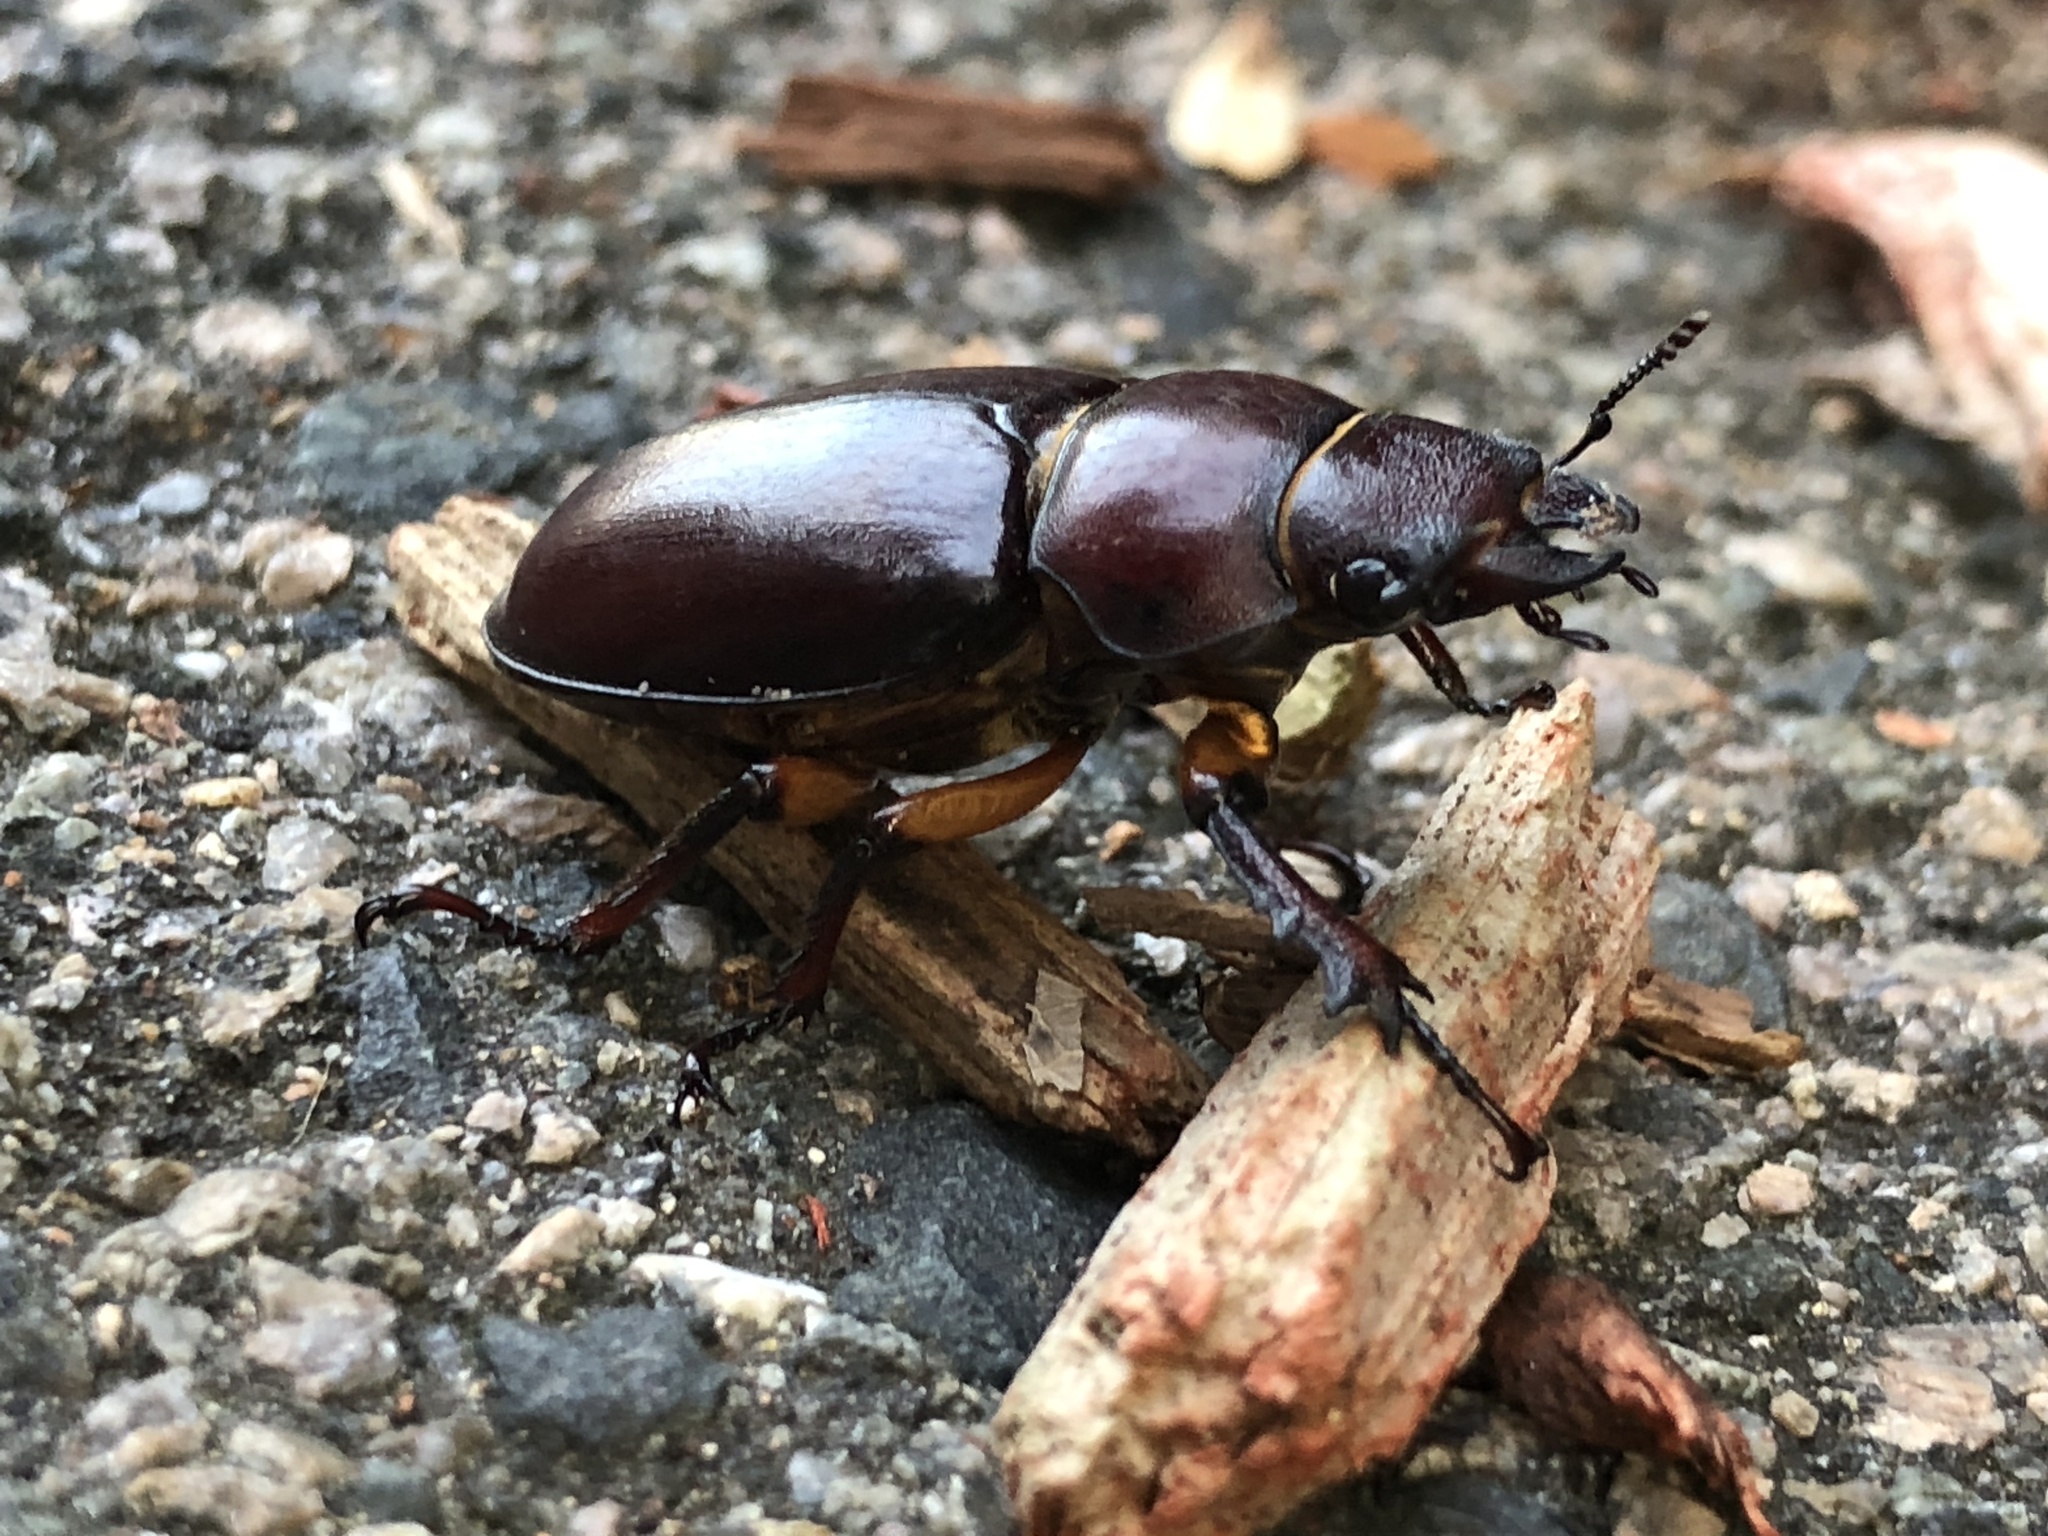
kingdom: Animalia
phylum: Arthropoda
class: Insecta
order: Coleoptera
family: Lucanidae
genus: Lucanus
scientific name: Lucanus capreolus
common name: Stag beetle
